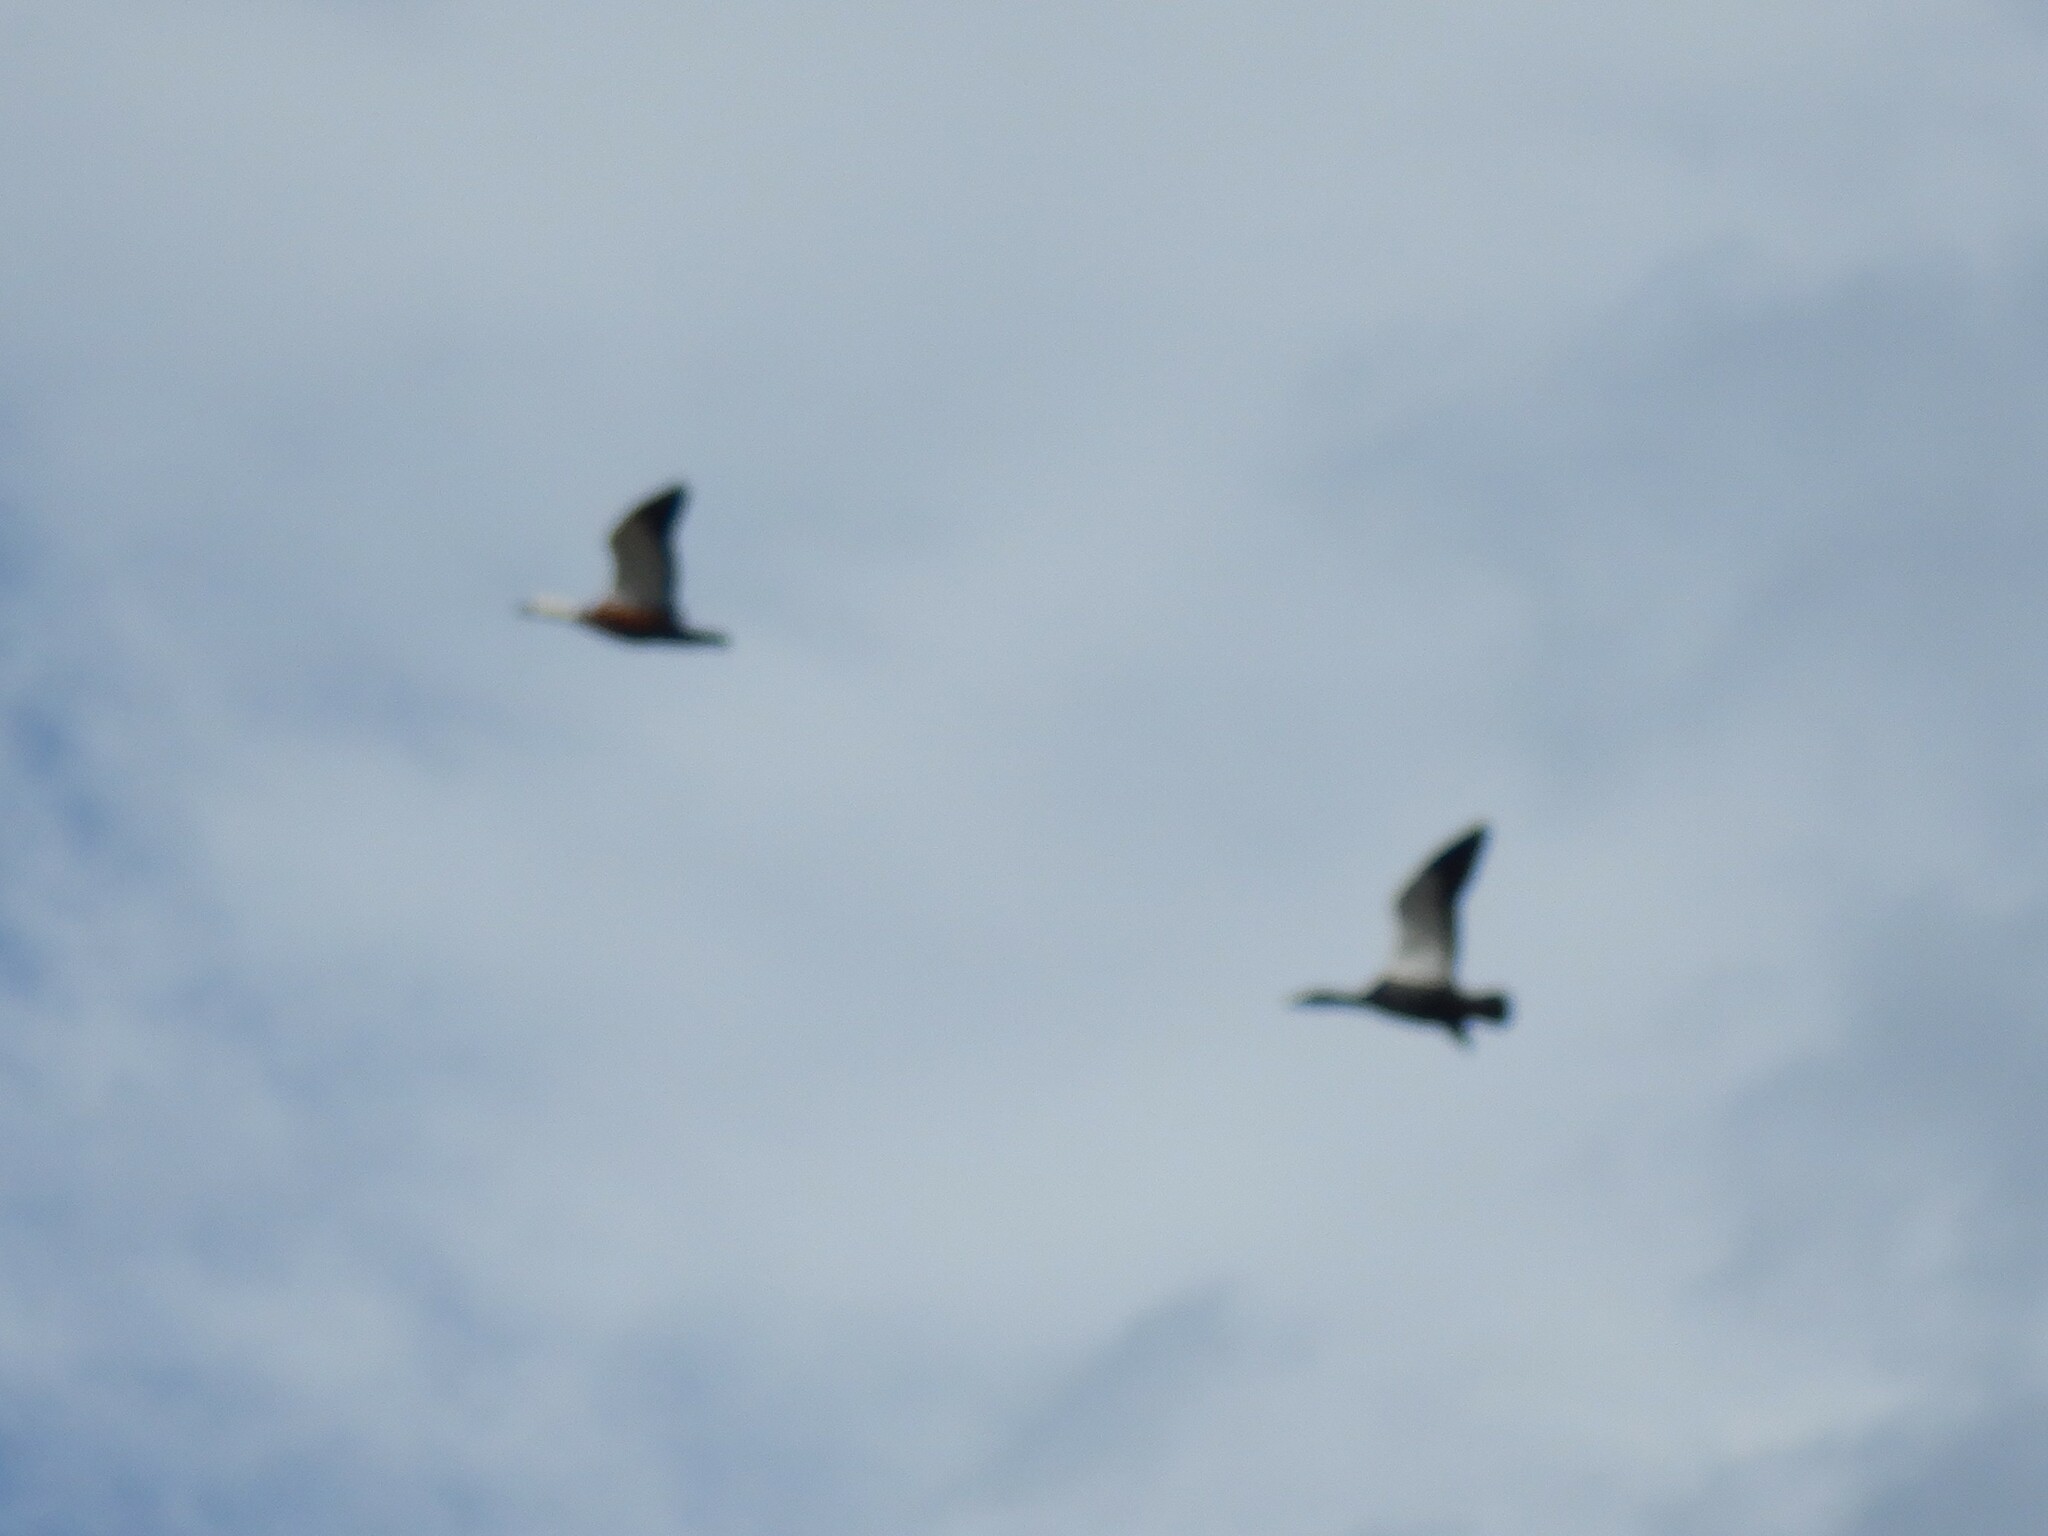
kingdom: Animalia
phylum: Chordata
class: Aves
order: Anseriformes
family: Anatidae
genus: Tadorna
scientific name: Tadorna variegata
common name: Paradise shelduck
